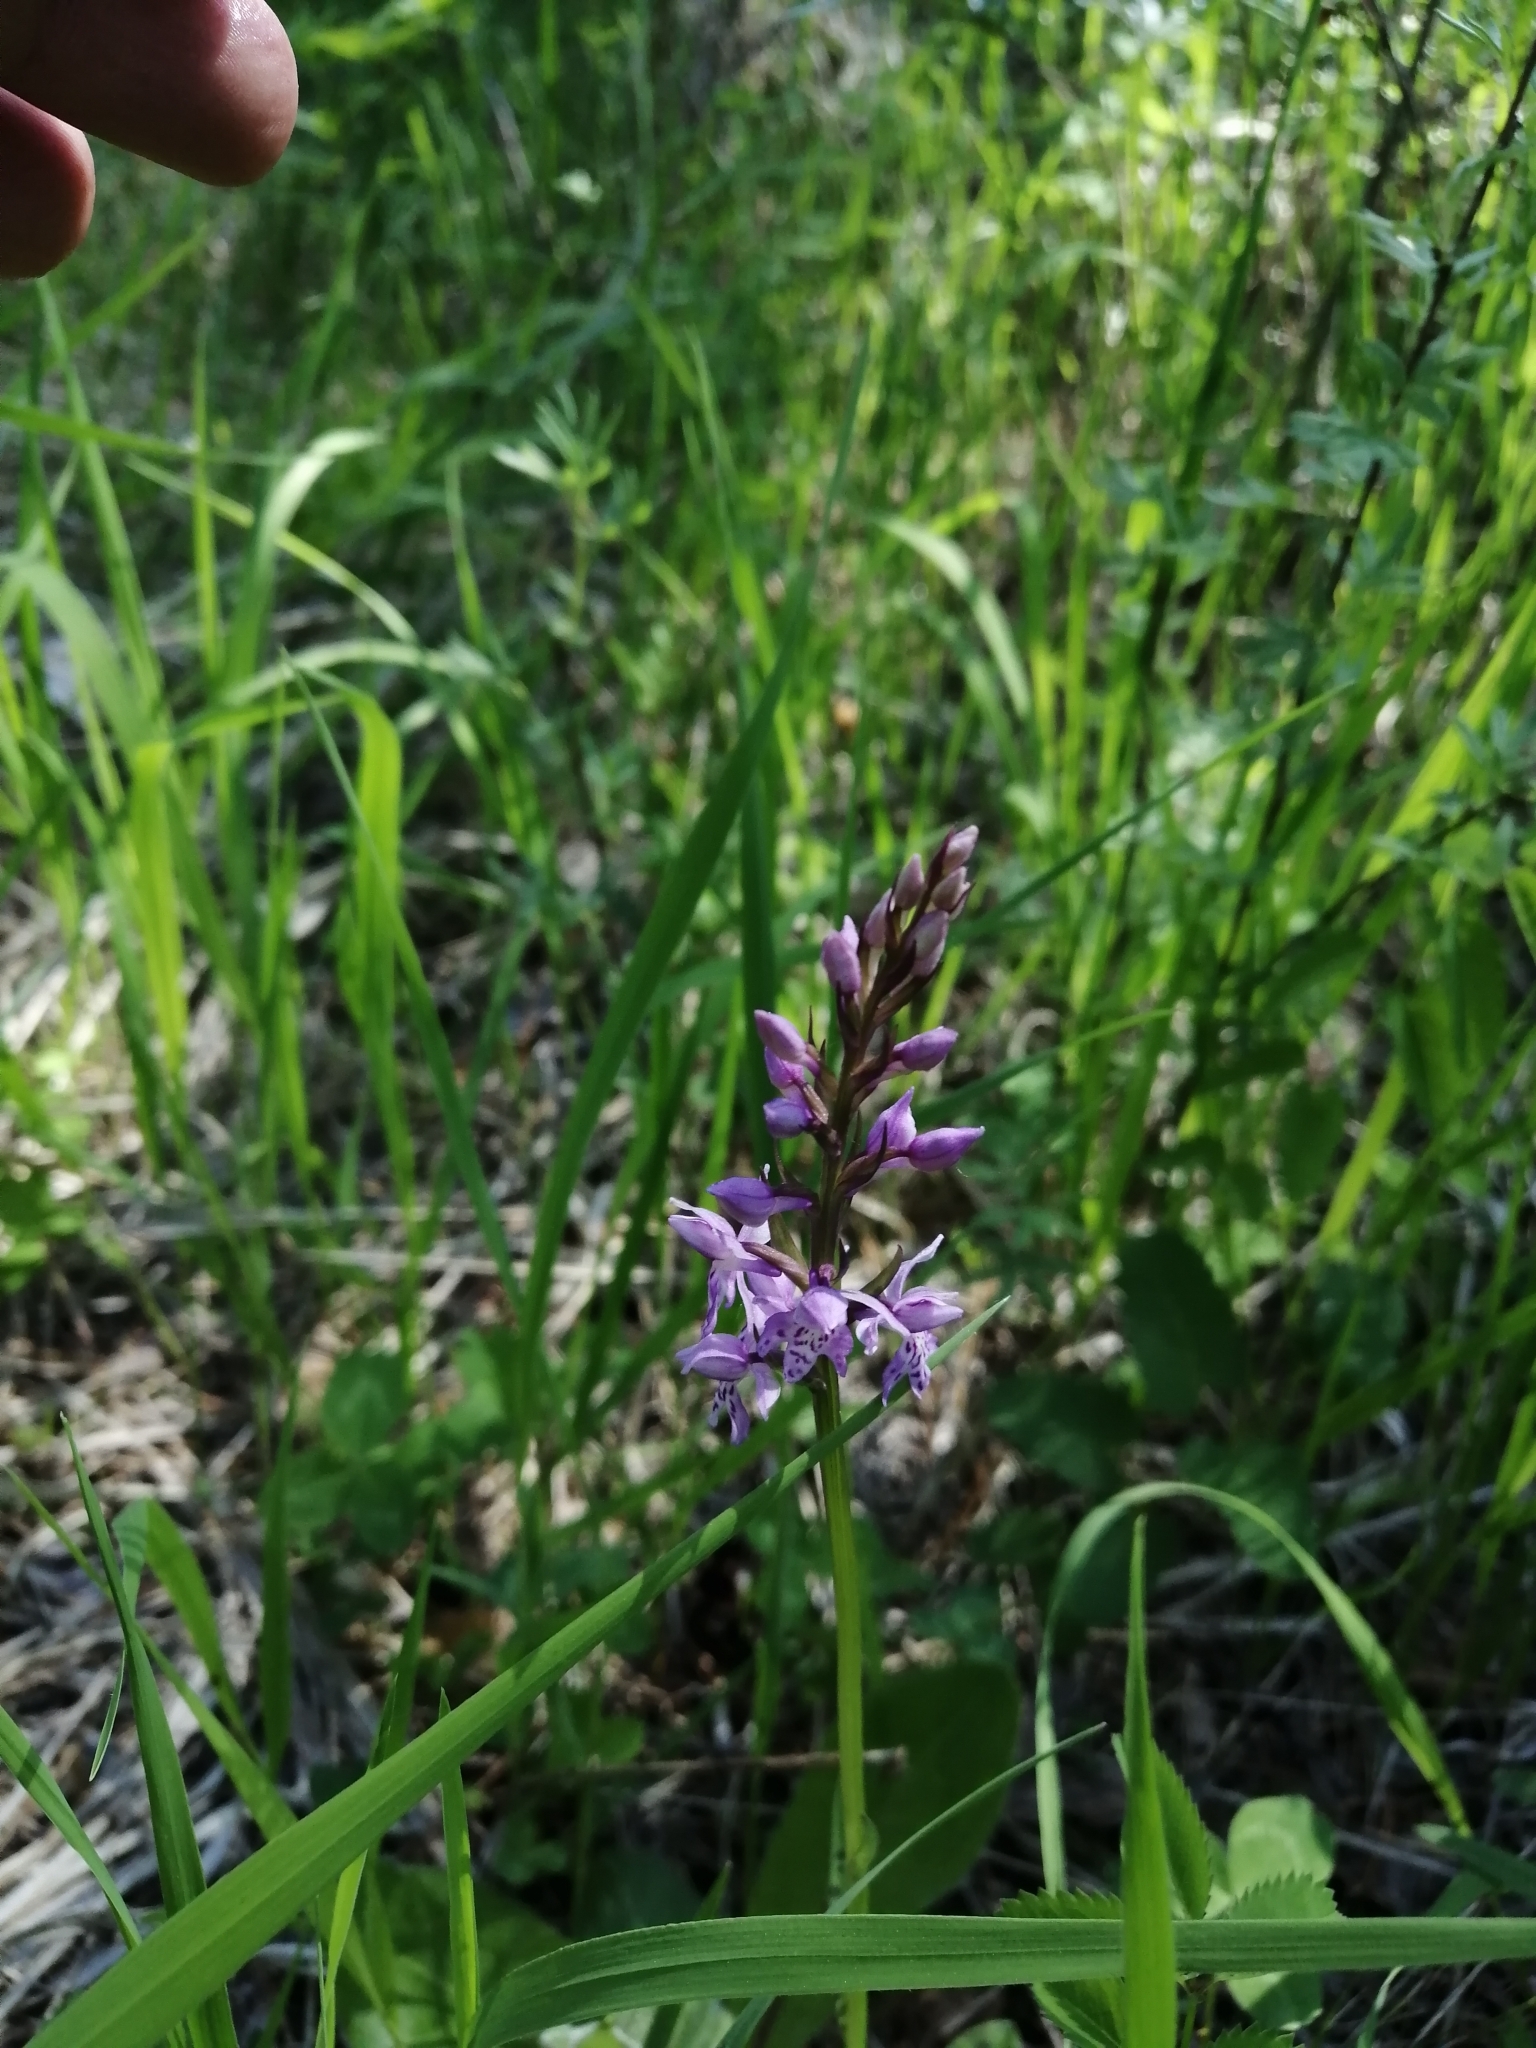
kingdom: Plantae
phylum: Tracheophyta
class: Liliopsida
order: Asparagales
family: Orchidaceae
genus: Dactylorhiza
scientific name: Dactylorhiza maculata
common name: Heath spotted-orchid
